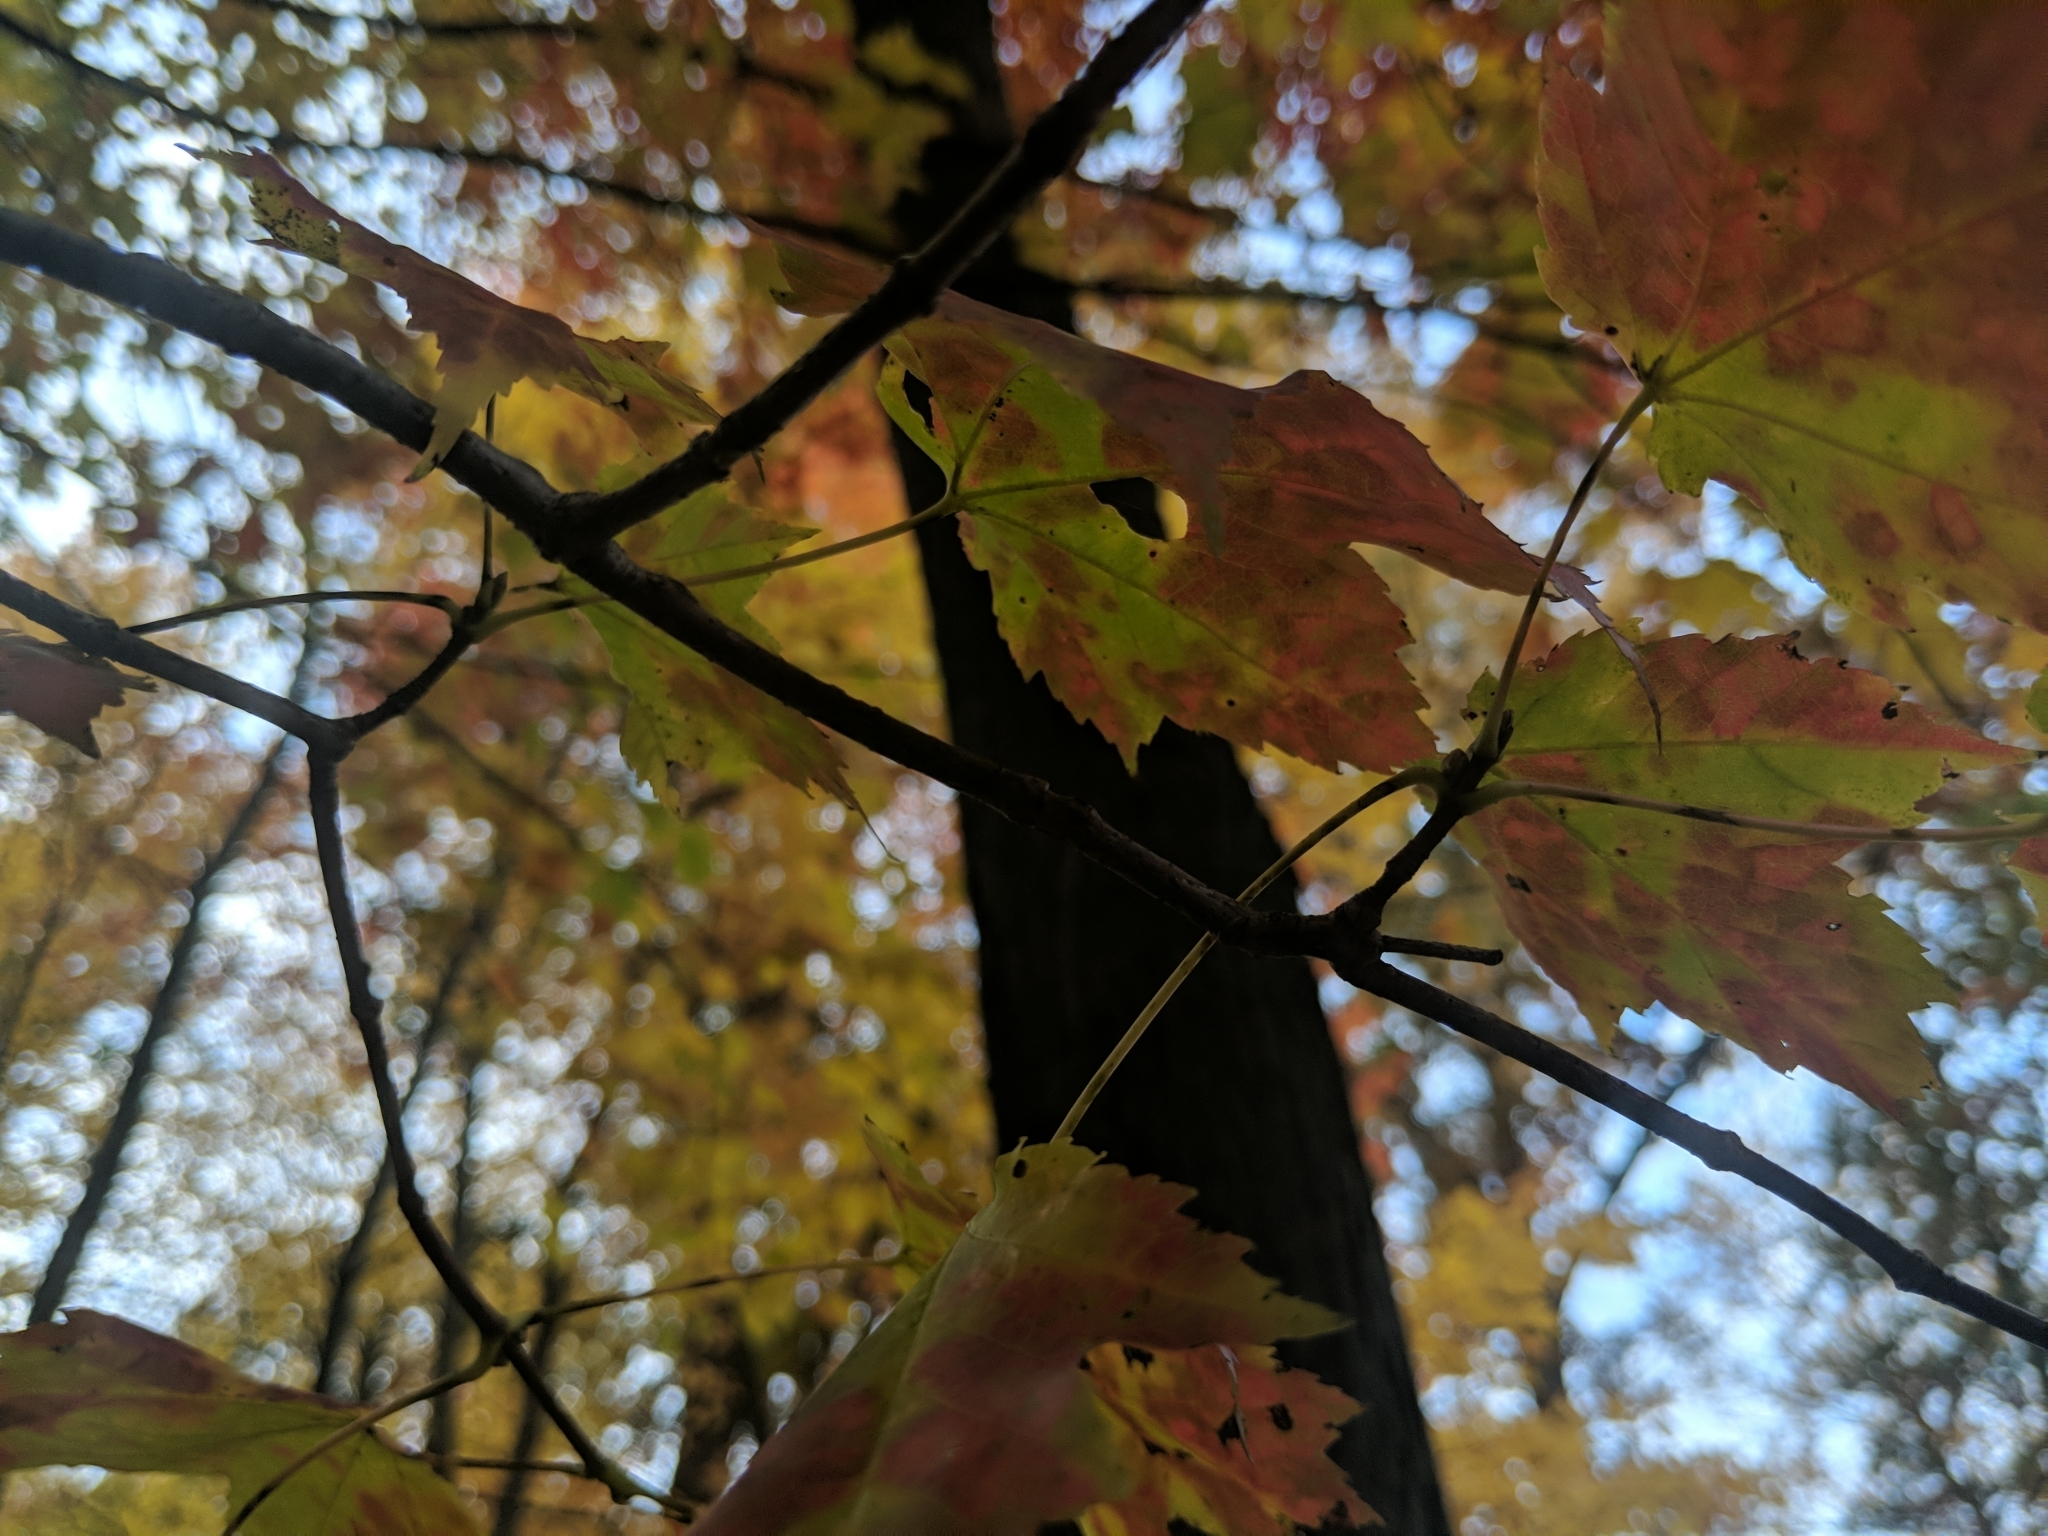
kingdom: Plantae
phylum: Tracheophyta
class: Magnoliopsida
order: Sapindales
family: Sapindaceae
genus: Acer
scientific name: Acer rubrum
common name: Red maple
